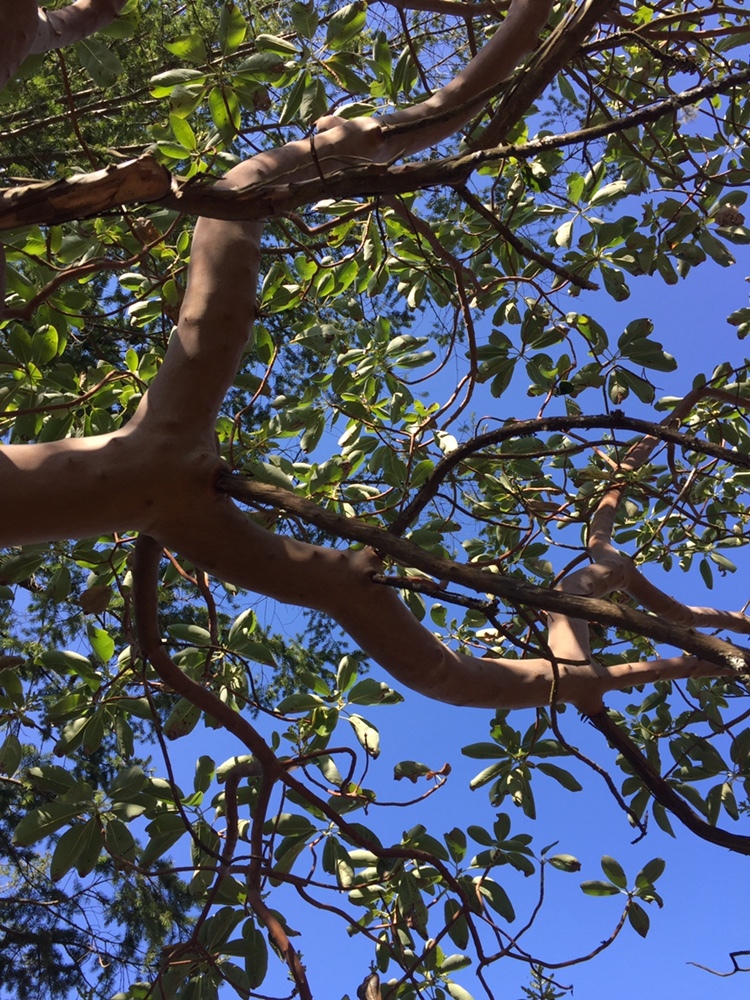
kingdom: Plantae
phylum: Tracheophyta
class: Magnoliopsida
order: Ericales
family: Ericaceae
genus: Arbutus
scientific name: Arbutus menziesii
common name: Pacific madrone
